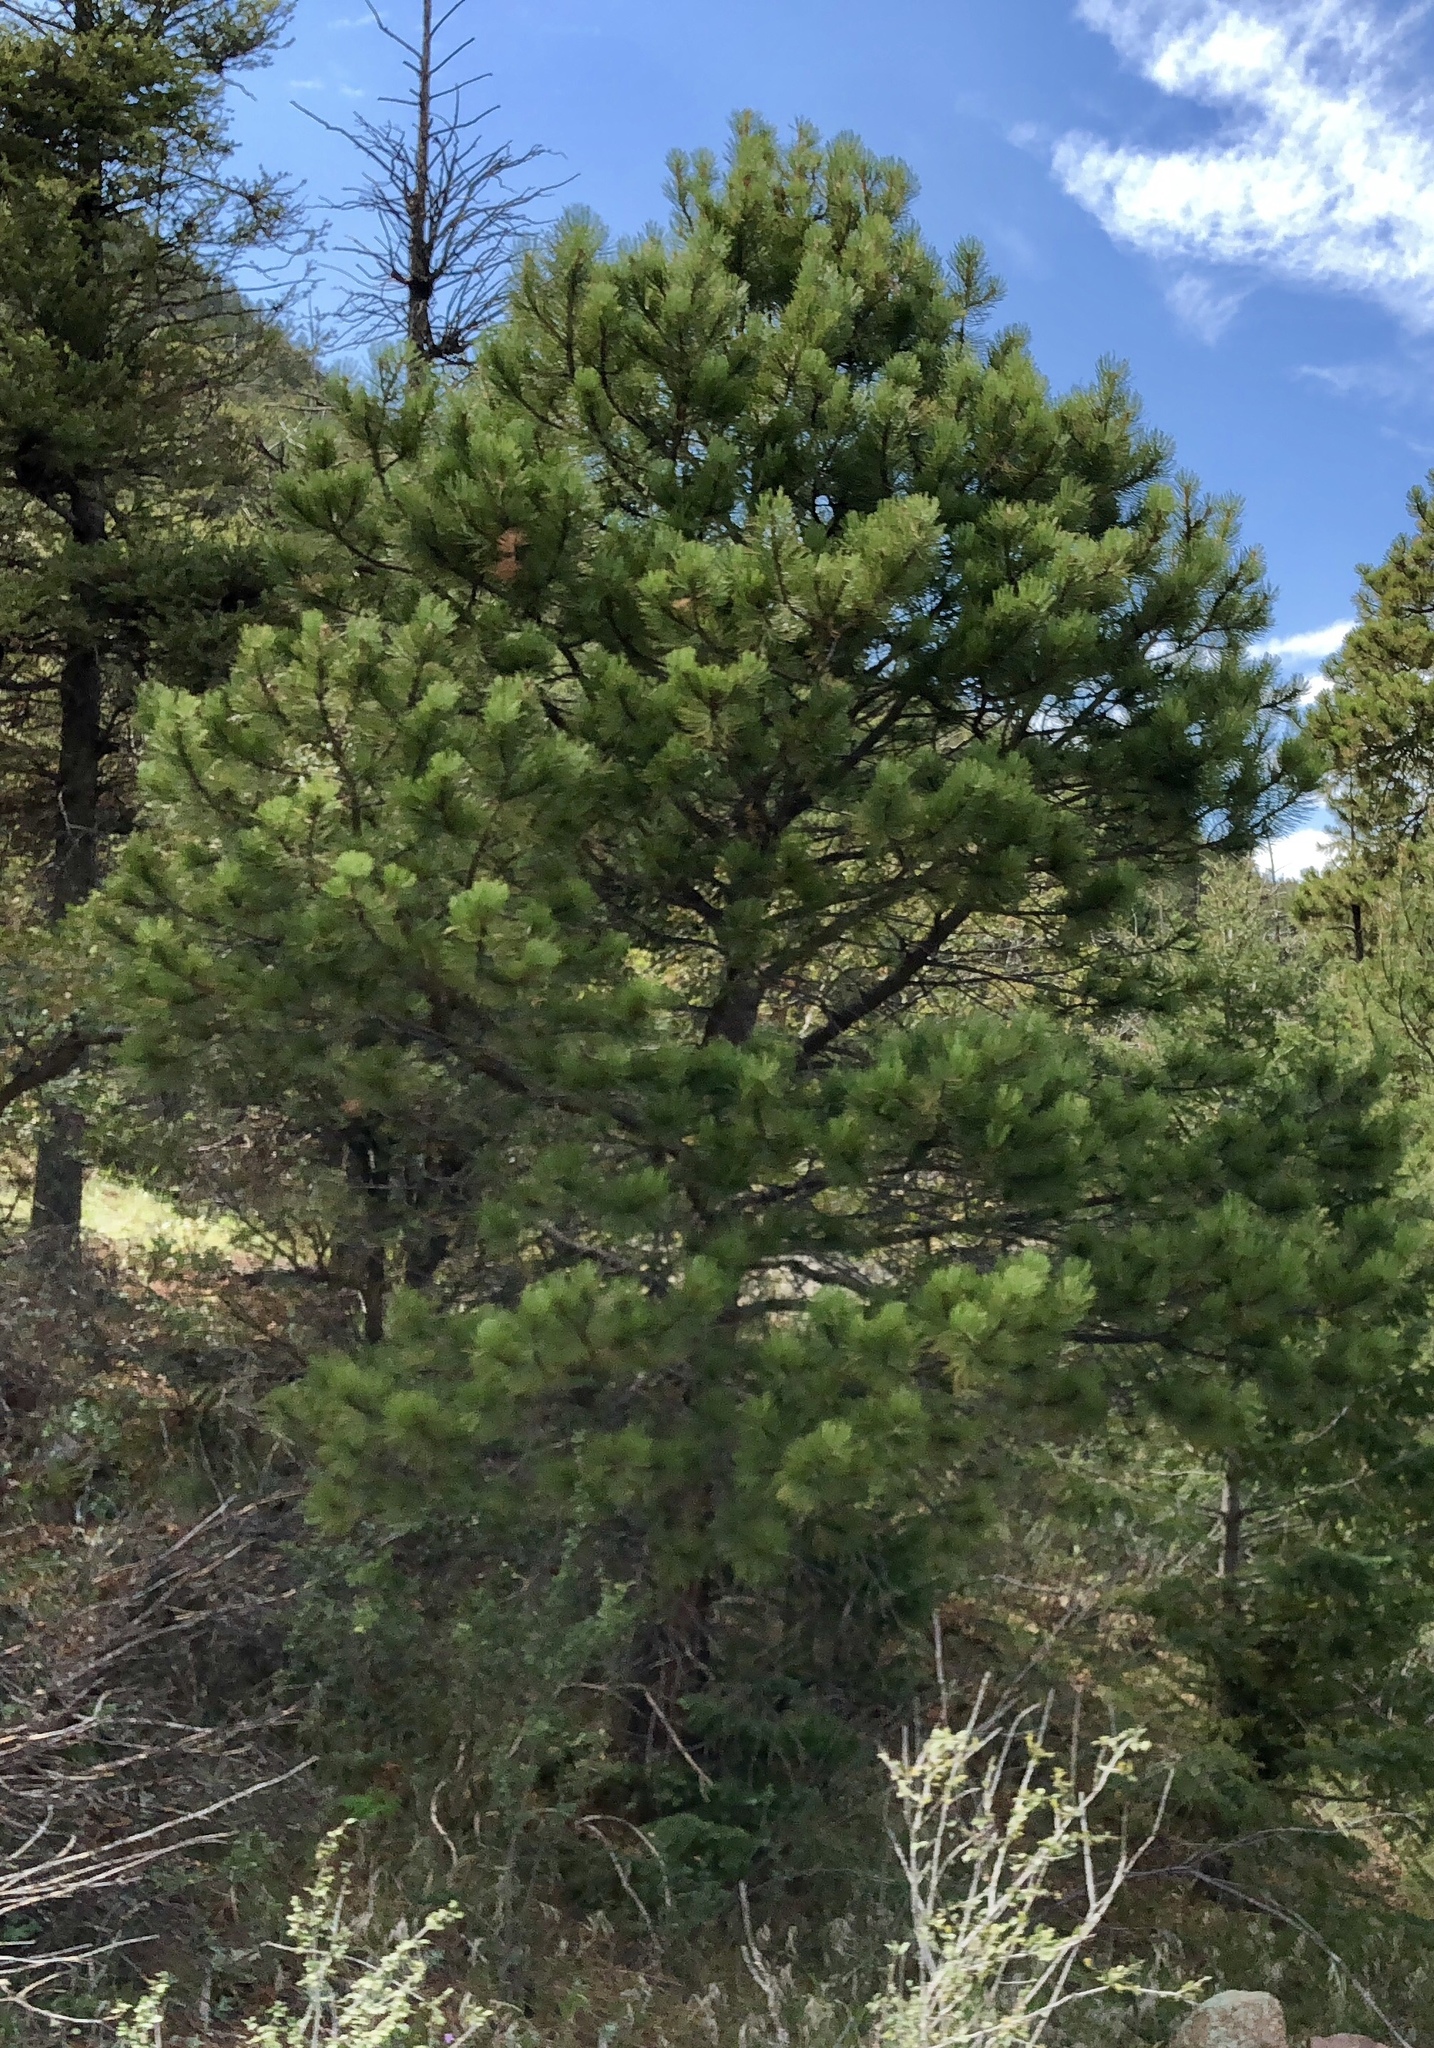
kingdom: Plantae
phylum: Tracheophyta
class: Pinopsida
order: Pinales
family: Pinaceae
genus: Pinus
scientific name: Pinus ponderosa
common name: Western yellow-pine
